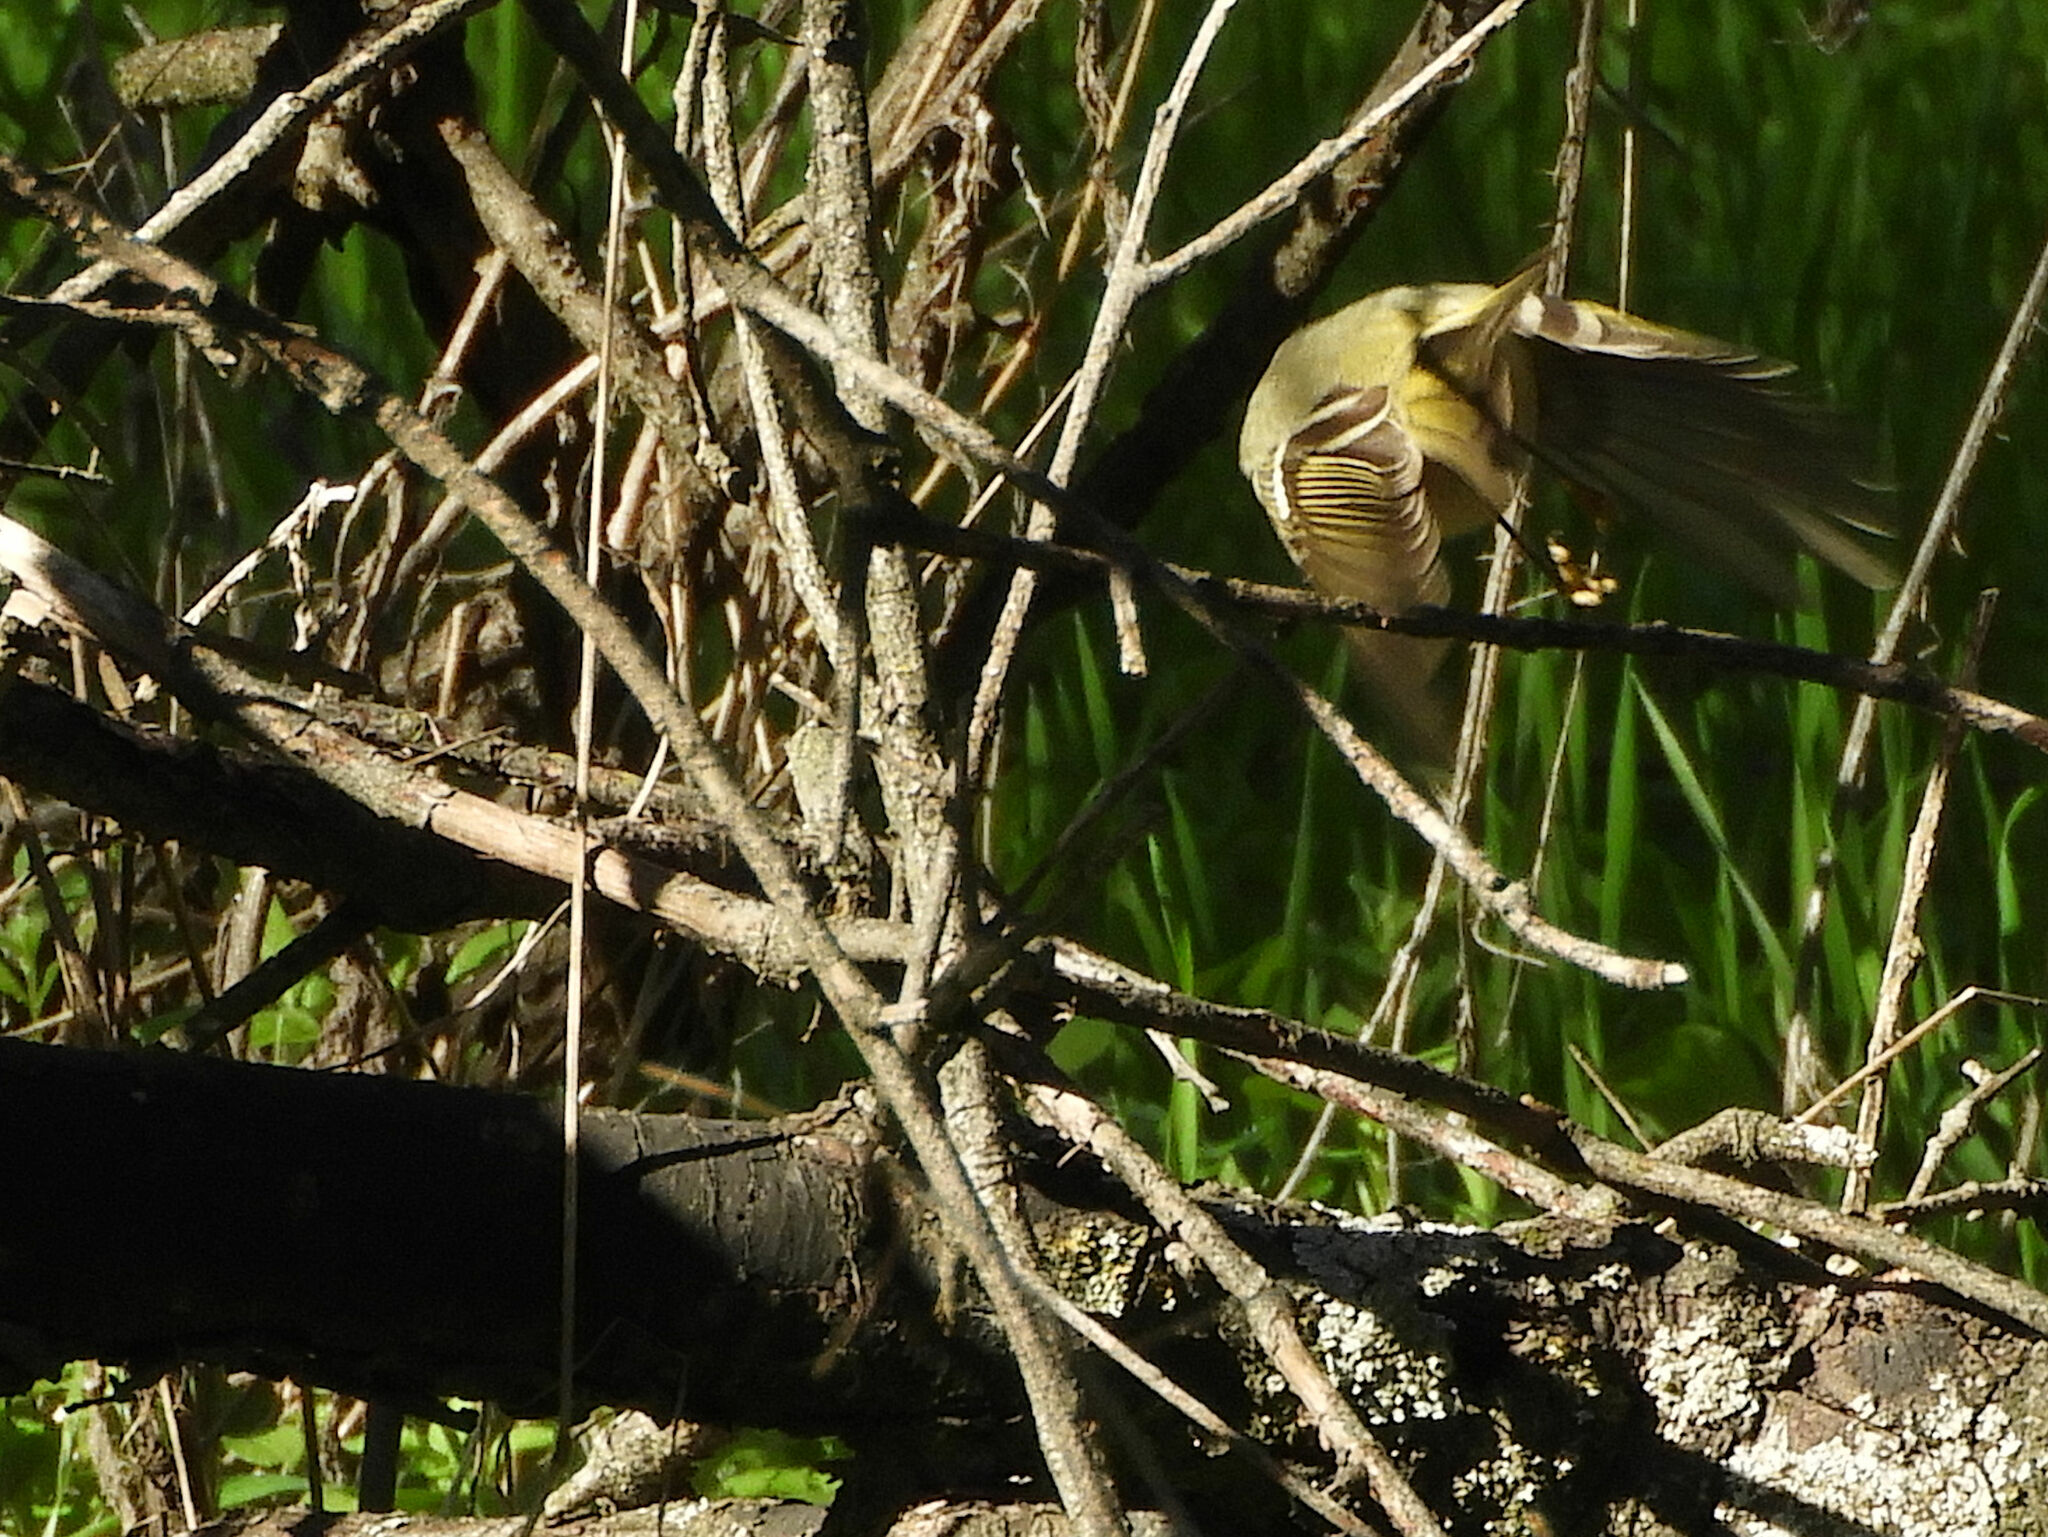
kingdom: Animalia
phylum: Chordata
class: Aves
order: Passeriformes
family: Regulidae
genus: Regulus
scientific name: Regulus calendula
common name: Ruby-crowned kinglet
